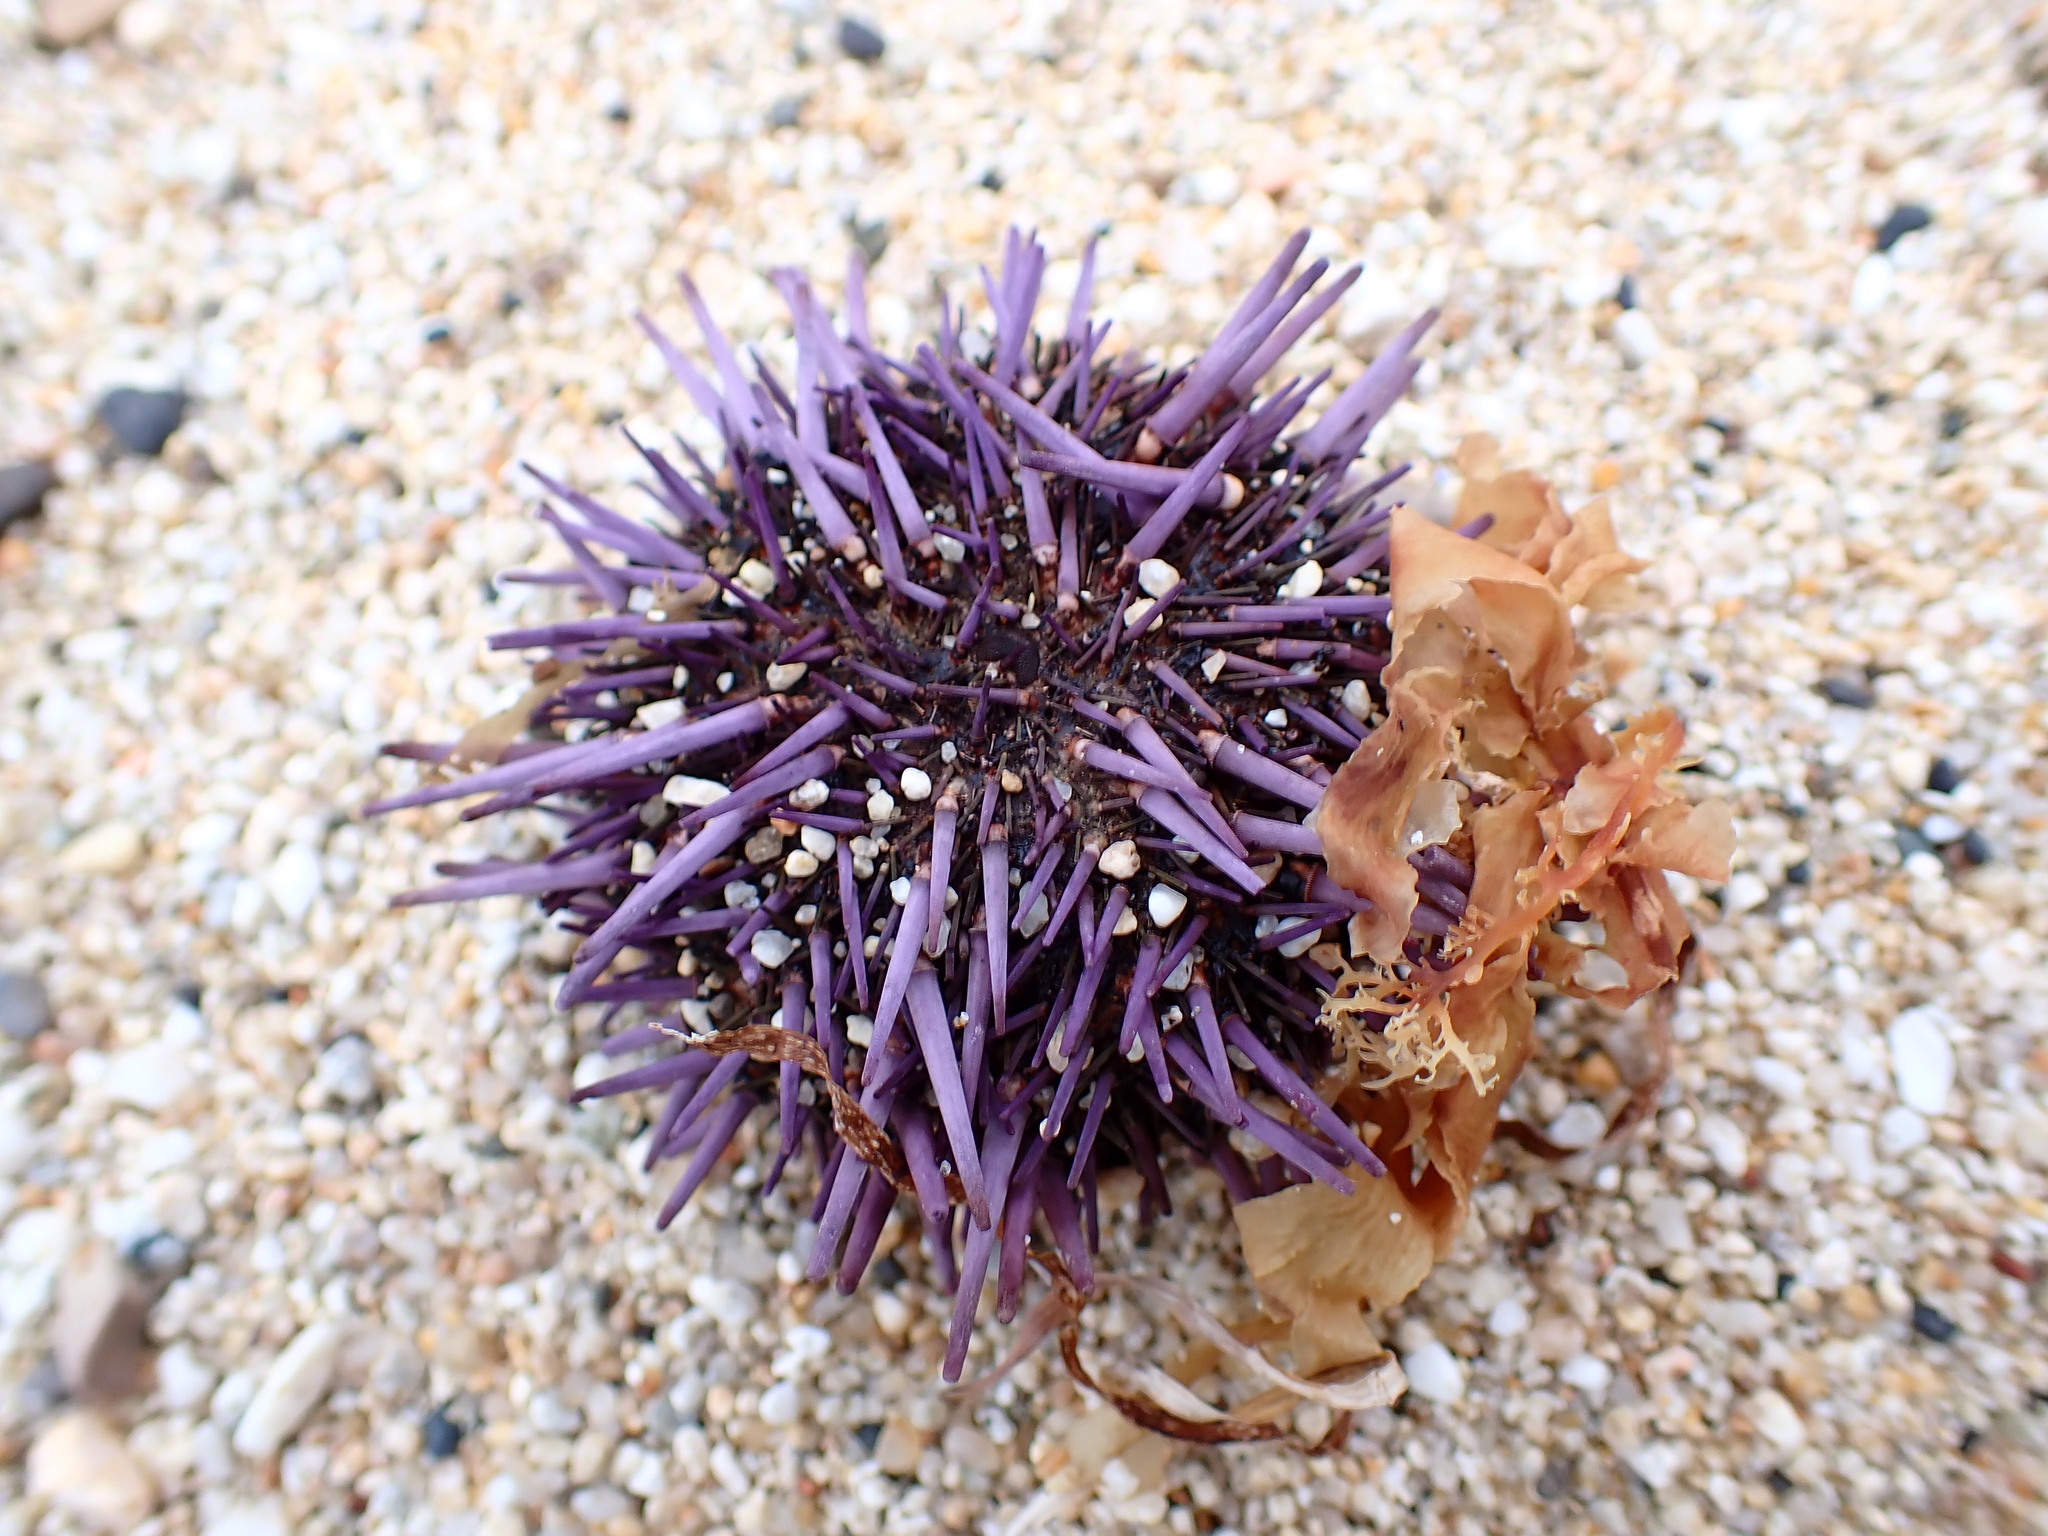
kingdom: Animalia
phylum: Echinodermata
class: Echinoidea
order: Camarodonta
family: Strongylocentrotidae
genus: Strongylocentrotus
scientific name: Strongylocentrotus purpuratus
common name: Purple sea urchin
